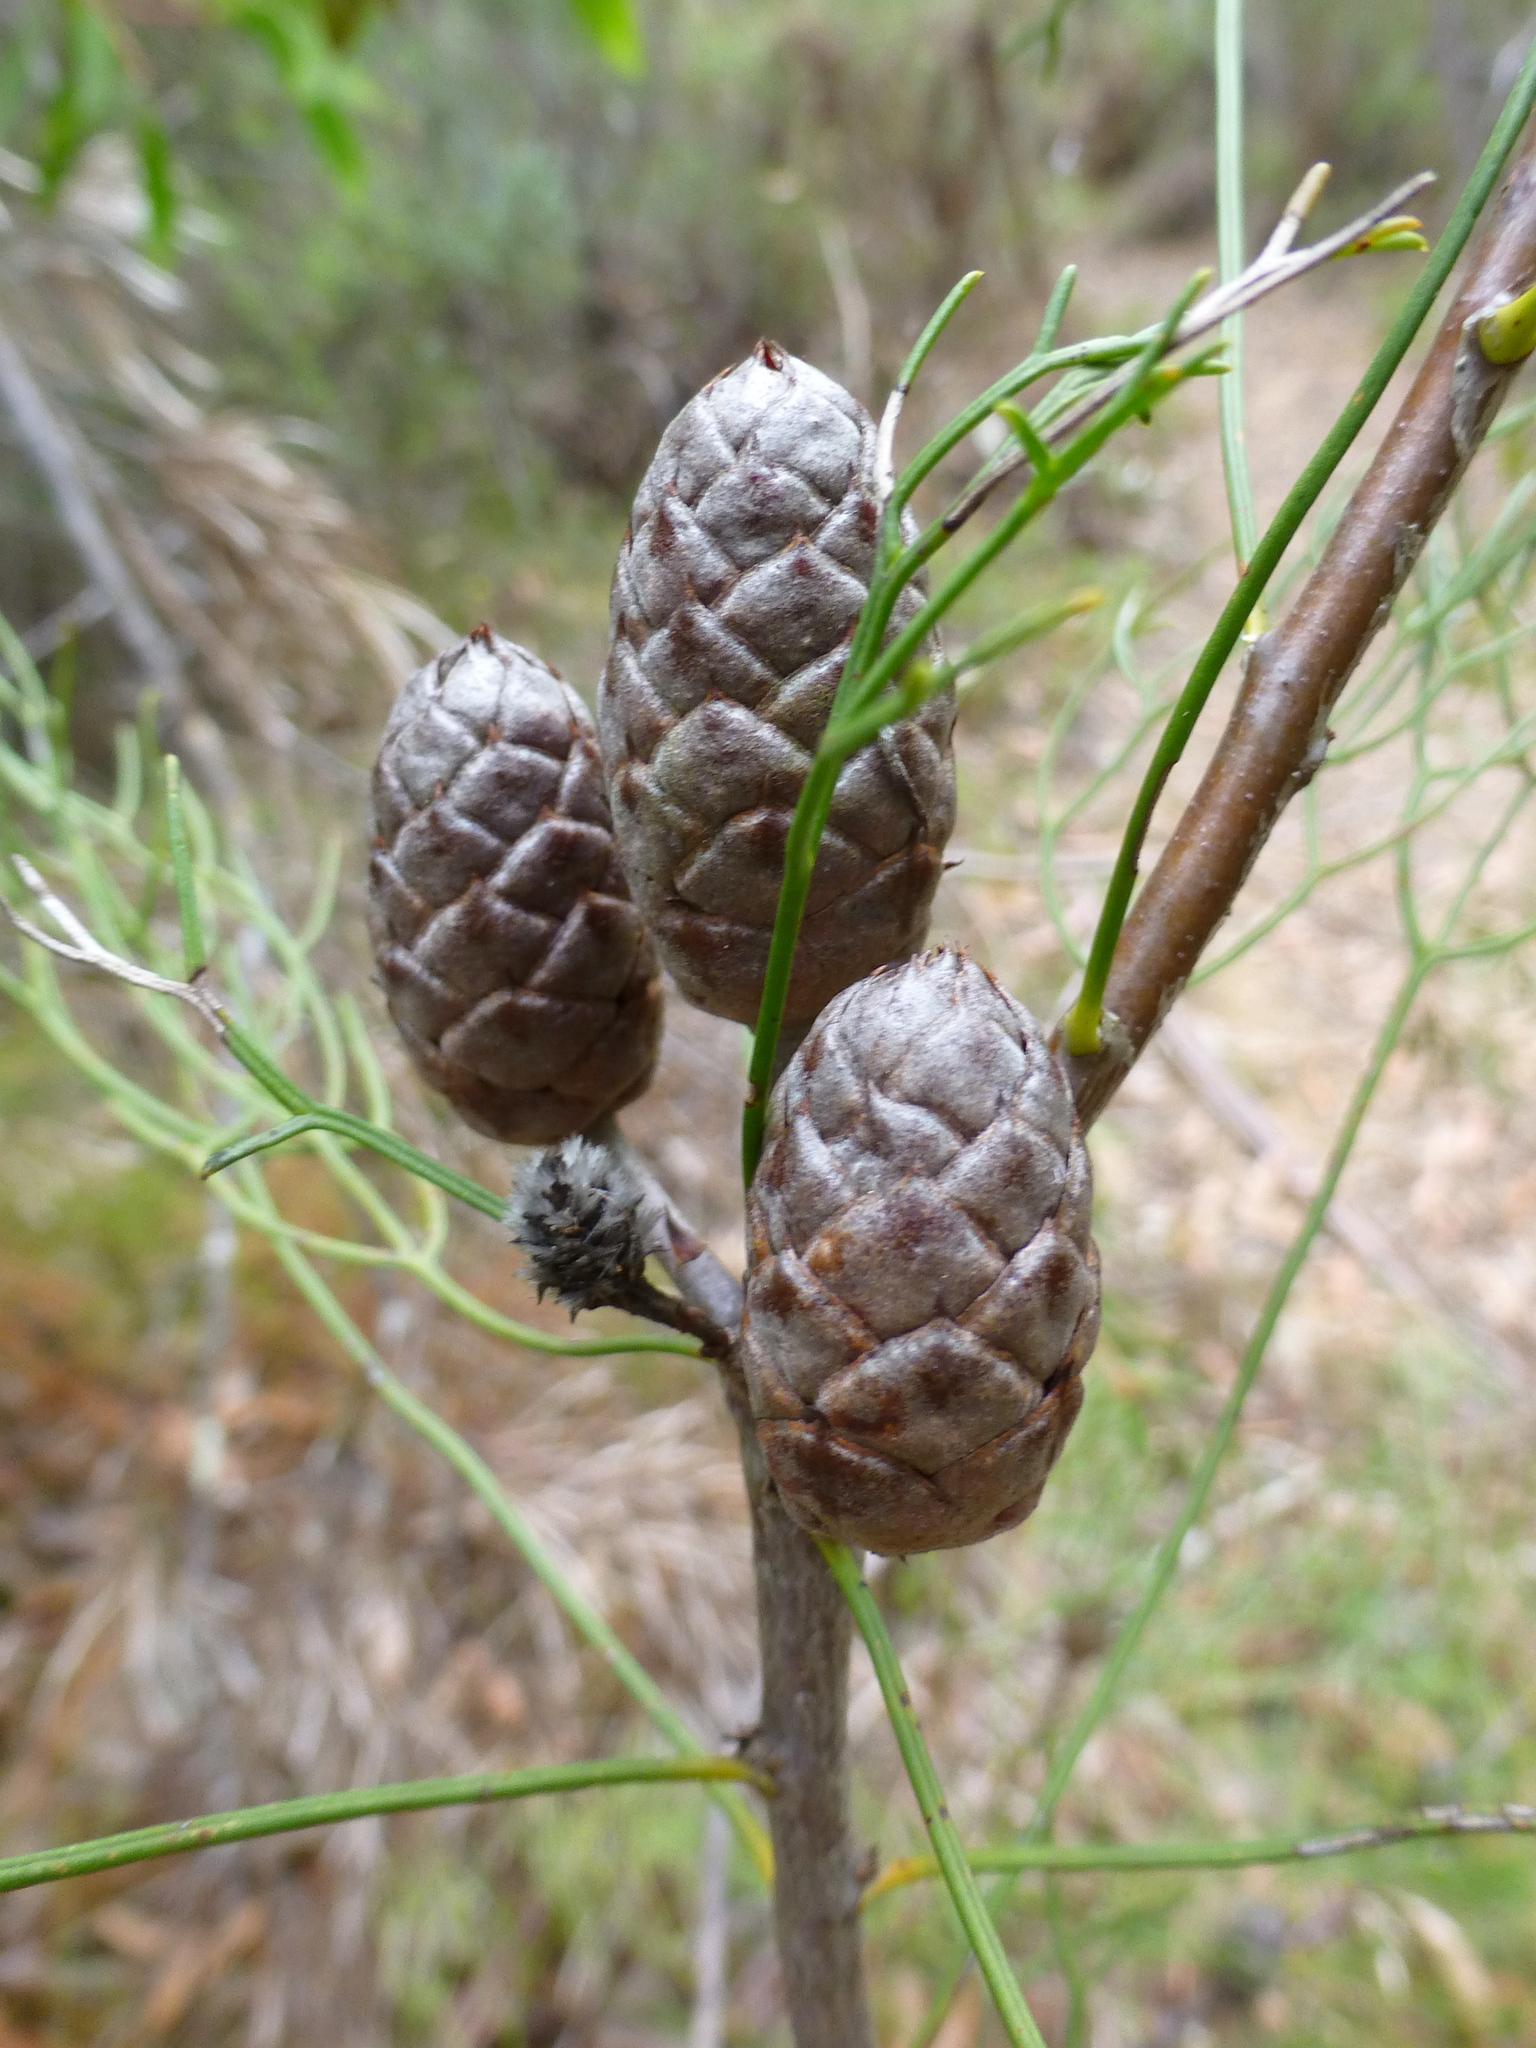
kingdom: Plantae
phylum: Tracheophyta
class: Magnoliopsida
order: Proteales
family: Proteaceae
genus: Isopogon
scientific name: Isopogon anethifolius
